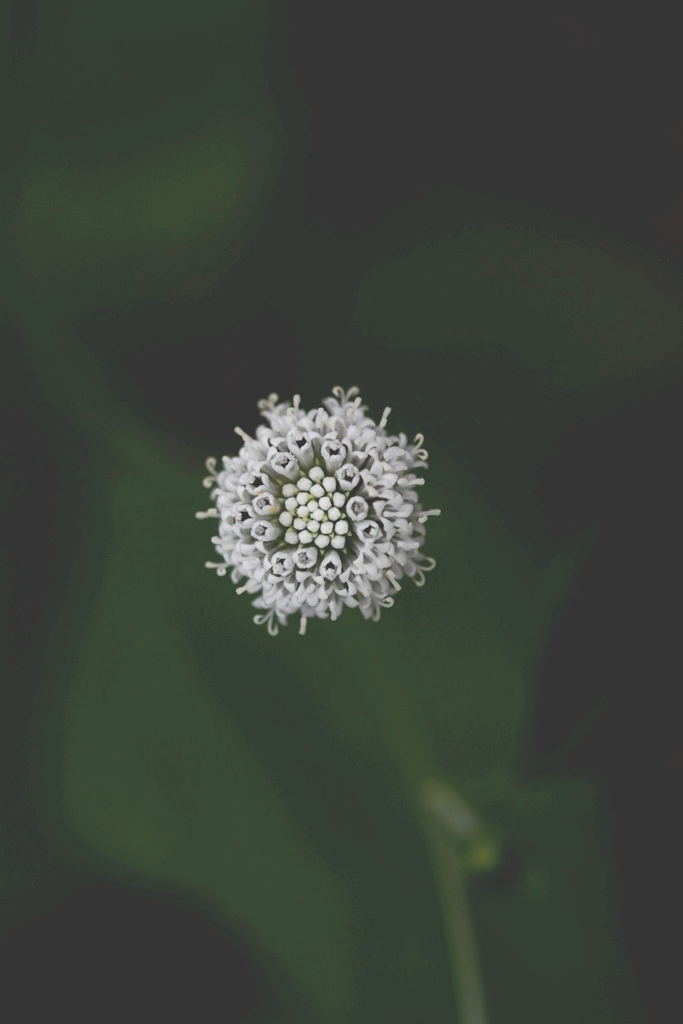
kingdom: Plantae
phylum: Tracheophyta
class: Magnoliopsida
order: Asterales
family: Asteraceae
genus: Melanthera
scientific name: Melanthera nivea
